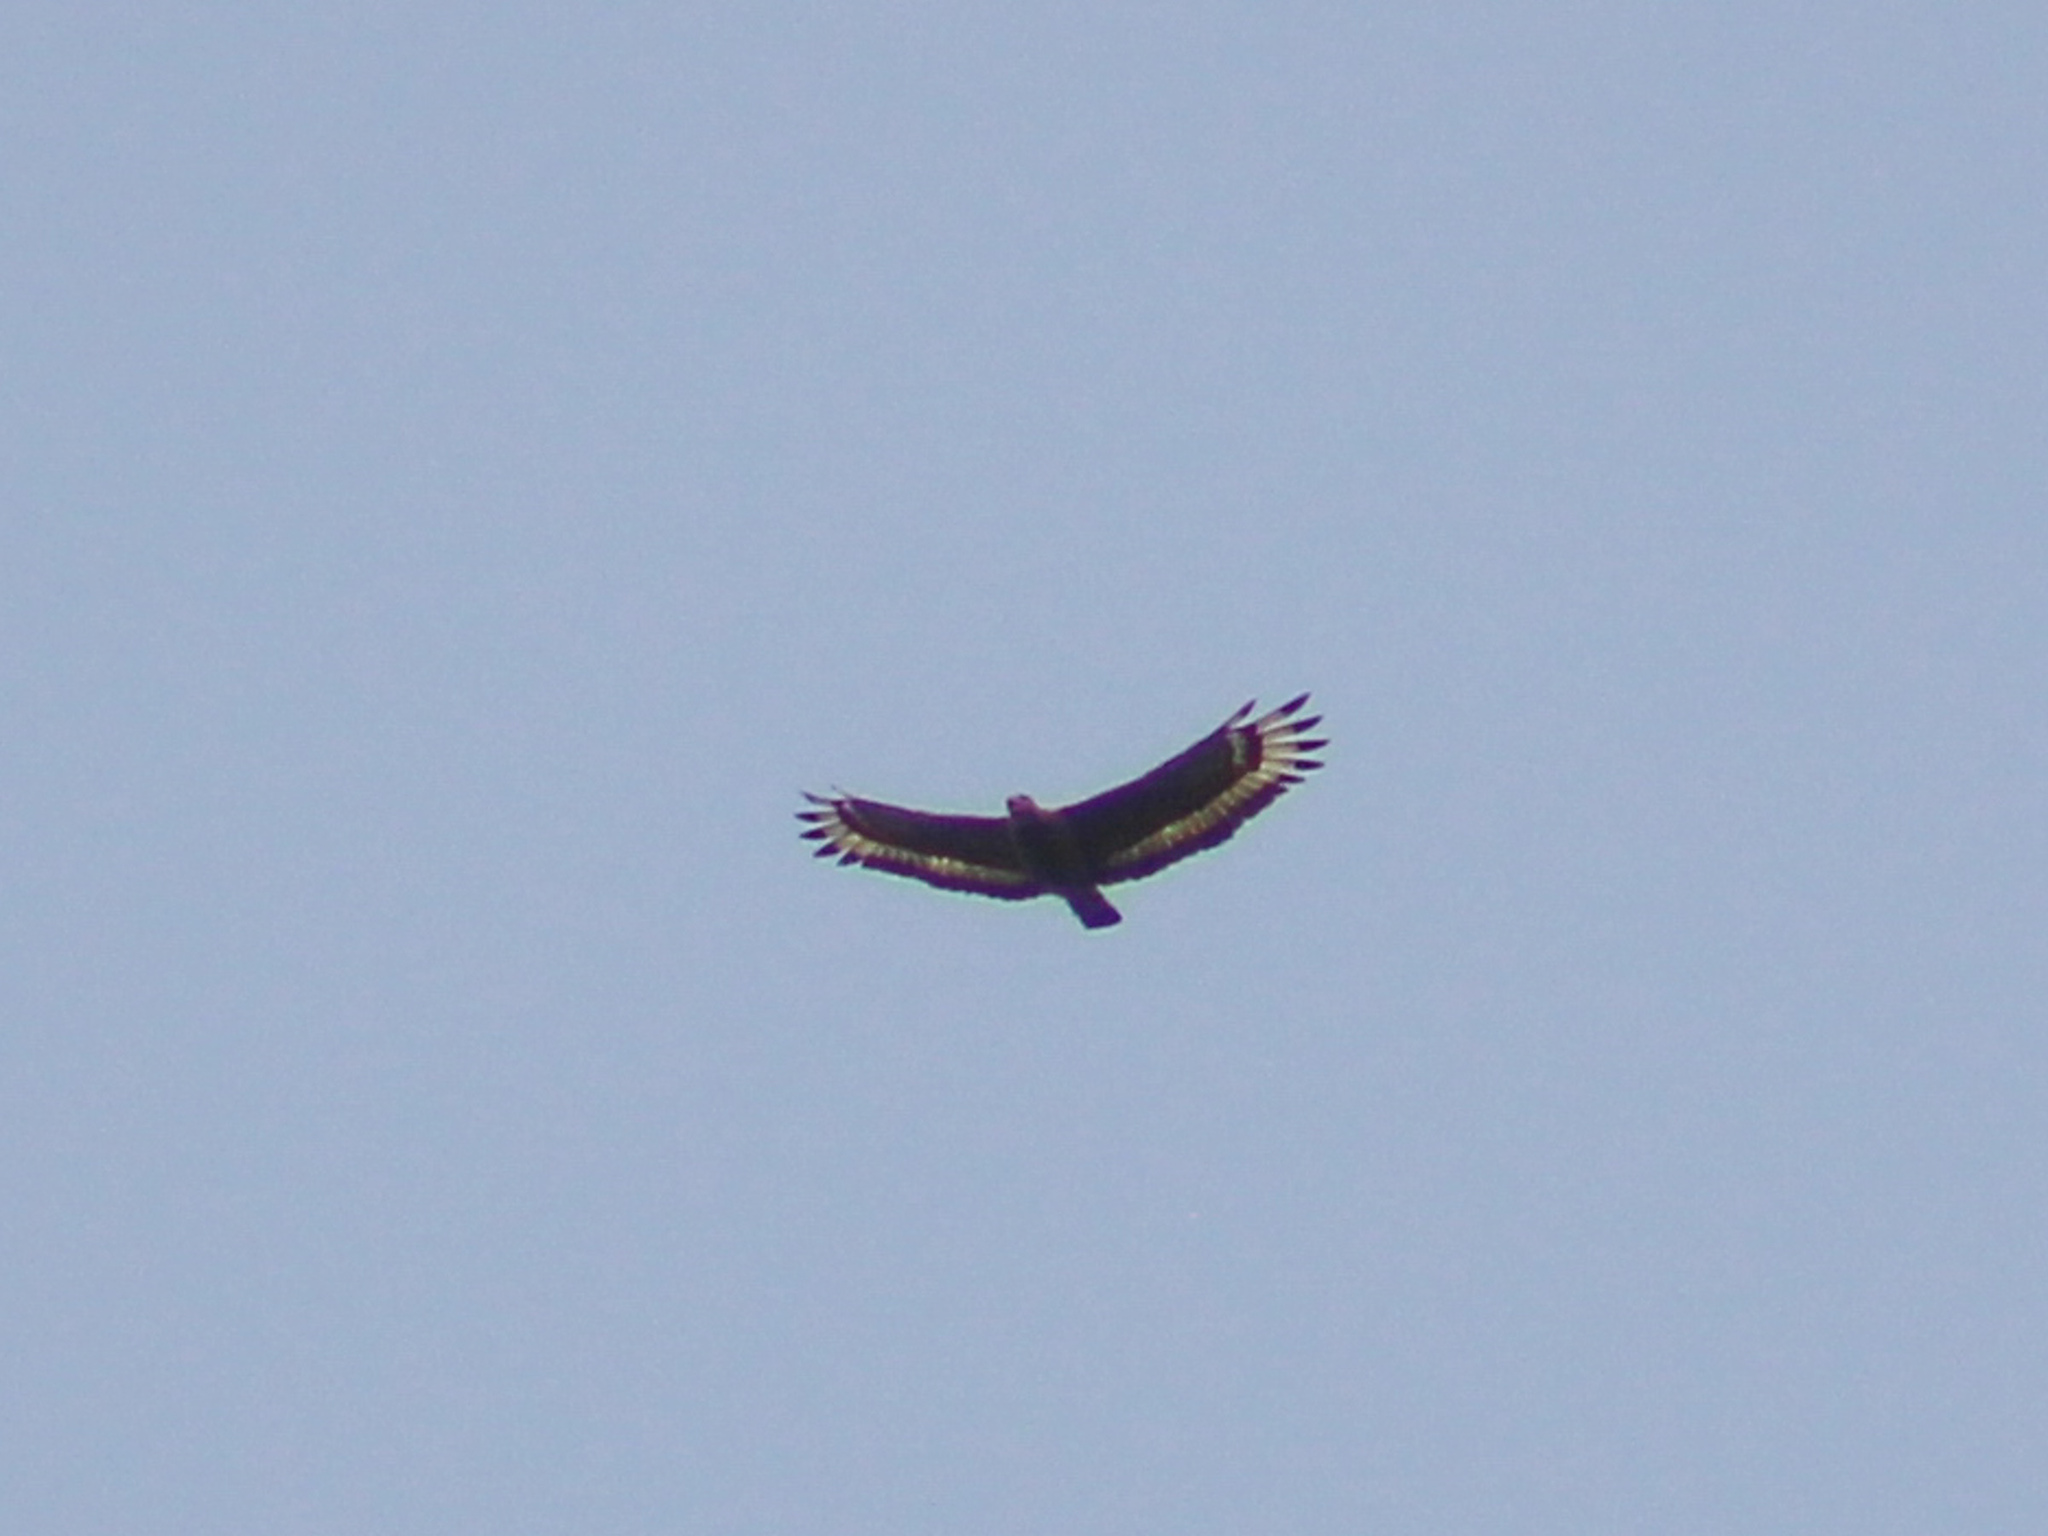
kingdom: Animalia
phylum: Chordata
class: Aves
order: Accipitriformes
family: Accipitridae
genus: Spilornis
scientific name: Spilornis cheela
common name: Crested serpent eagle
